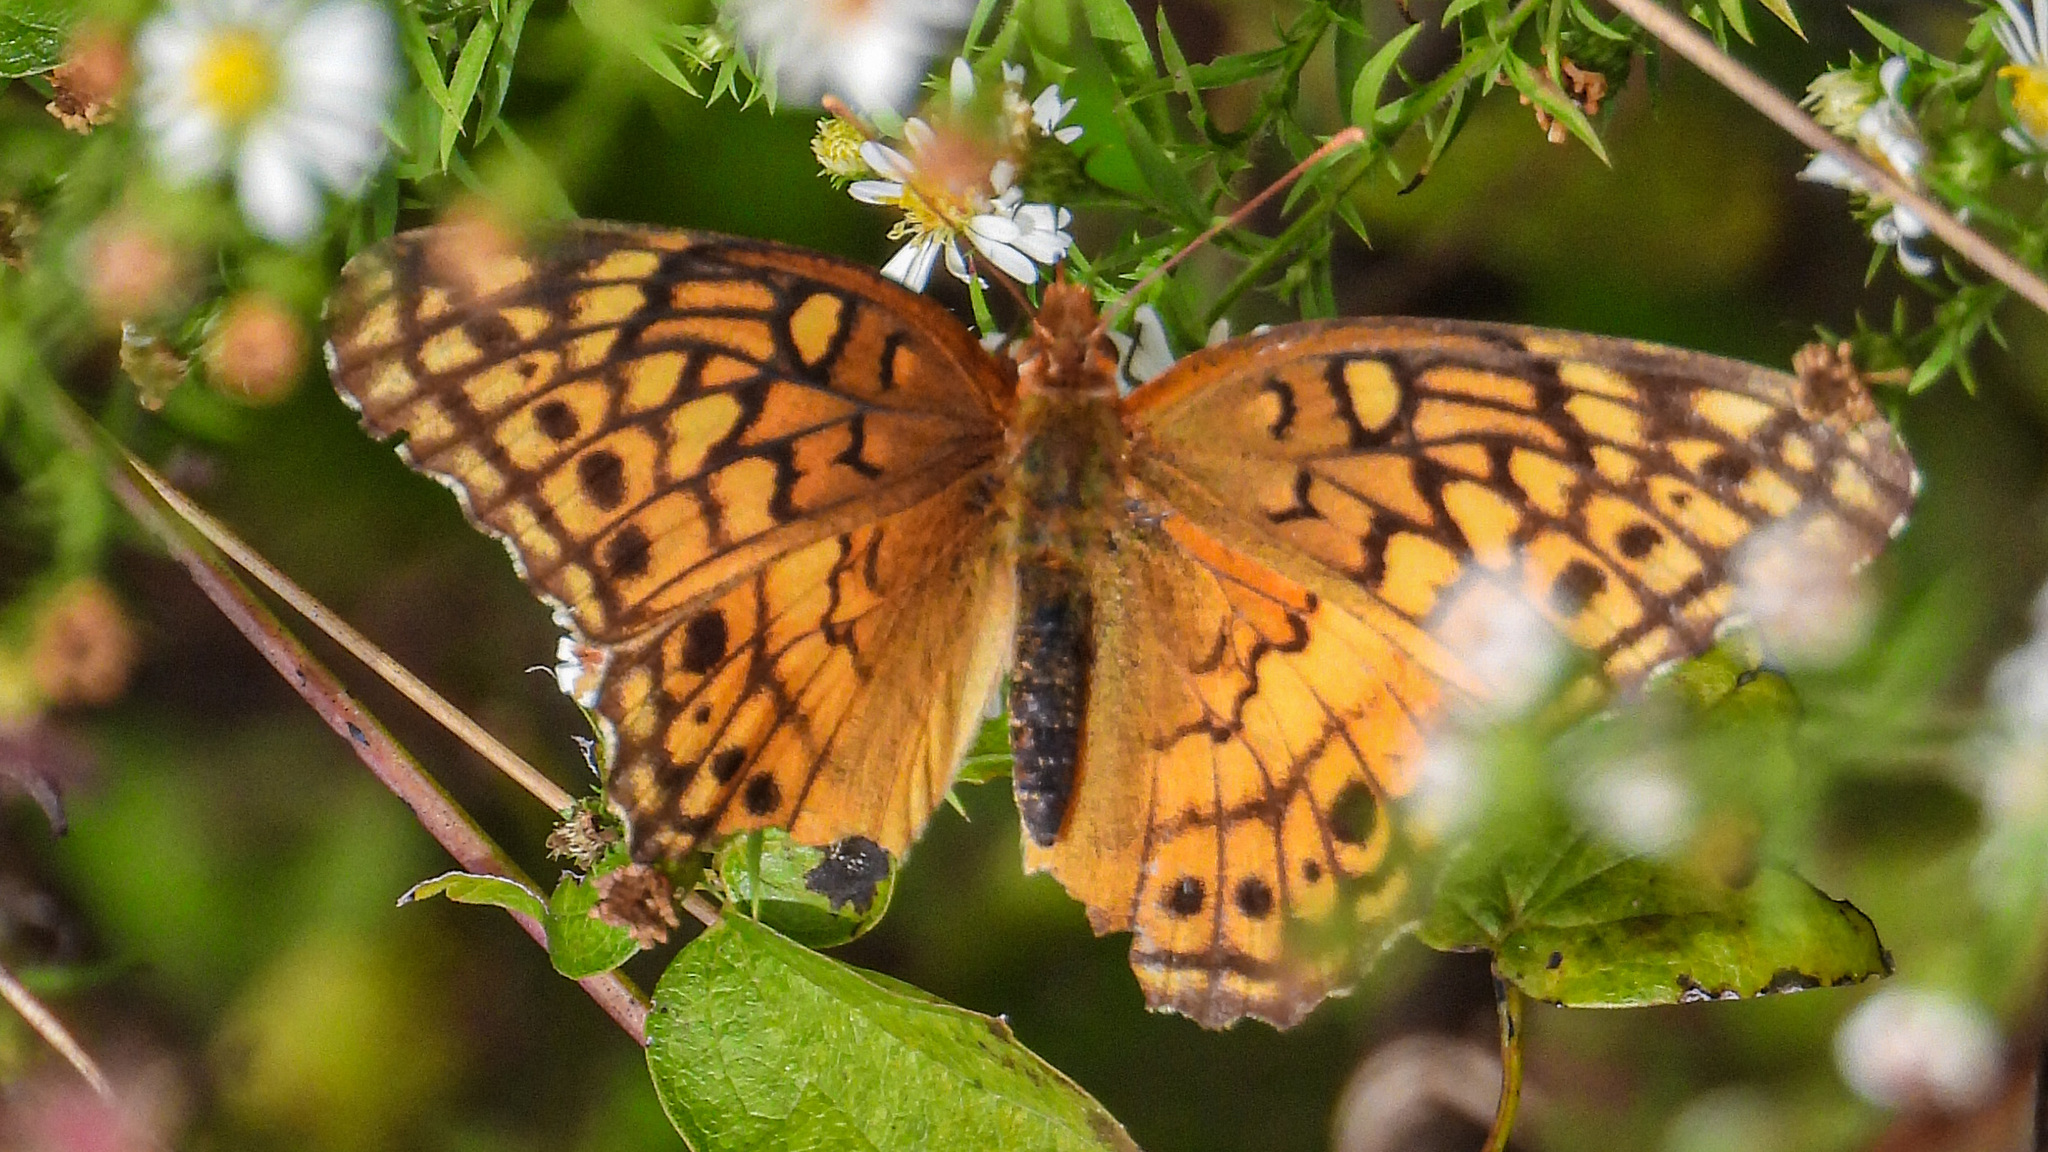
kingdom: Animalia
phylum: Arthropoda
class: Insecta
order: Lepidoptera
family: Nymphalidae
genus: Euptoieta
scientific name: Euptoieta claudia
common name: Variegated fritillary
